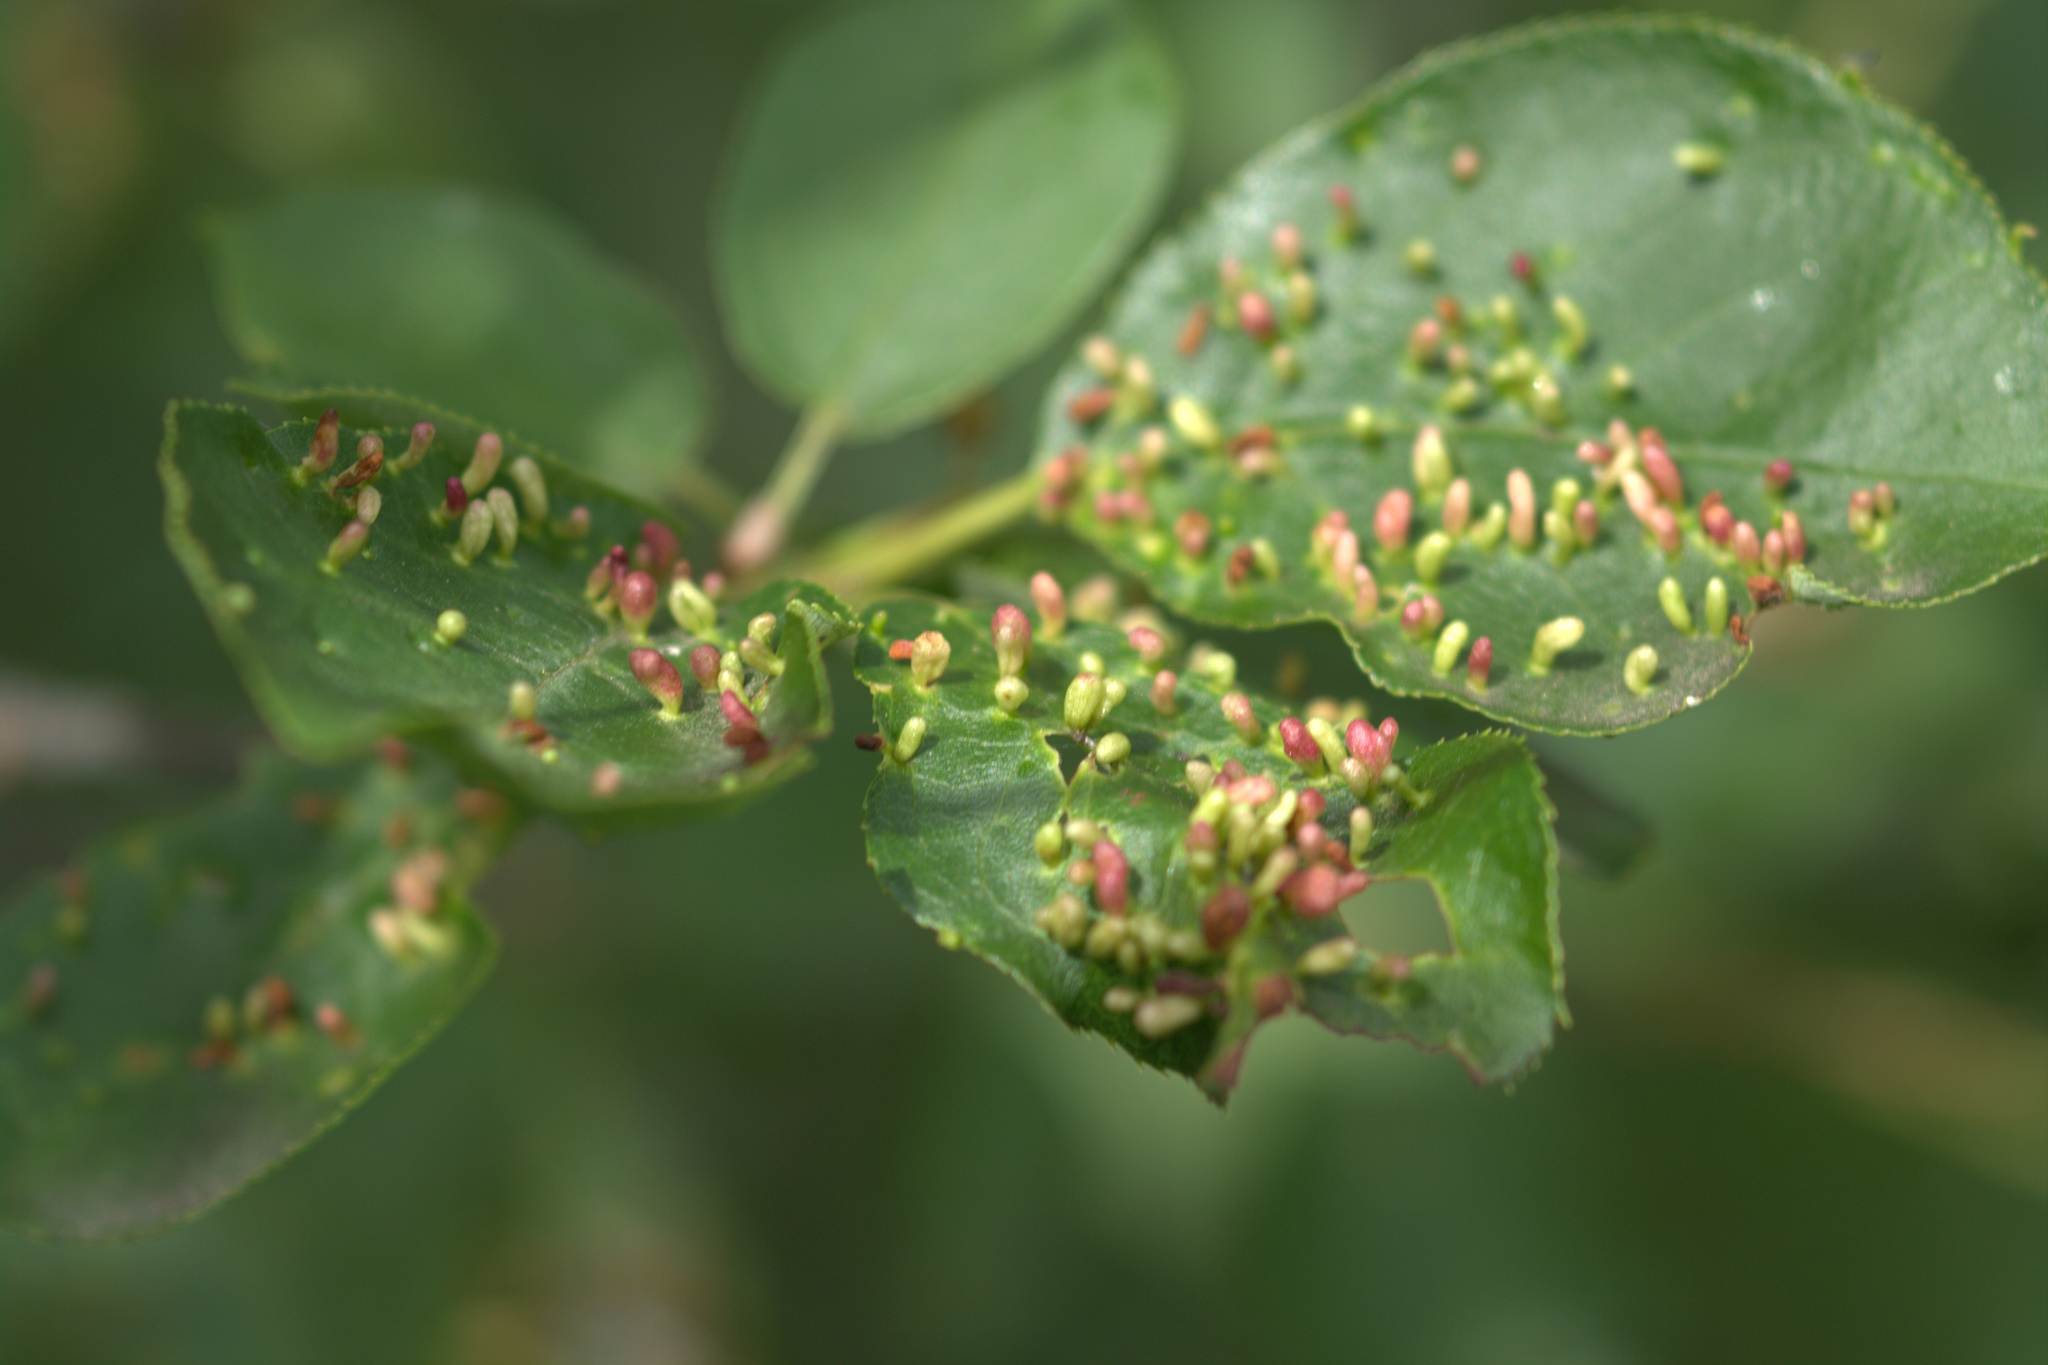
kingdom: Animalia
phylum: Arthropoda
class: Arachnida
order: Trombidiformes
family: Eriophyidae
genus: Eriophyes
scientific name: Eriophyes emarginatae
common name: Plum leaf gall mite
